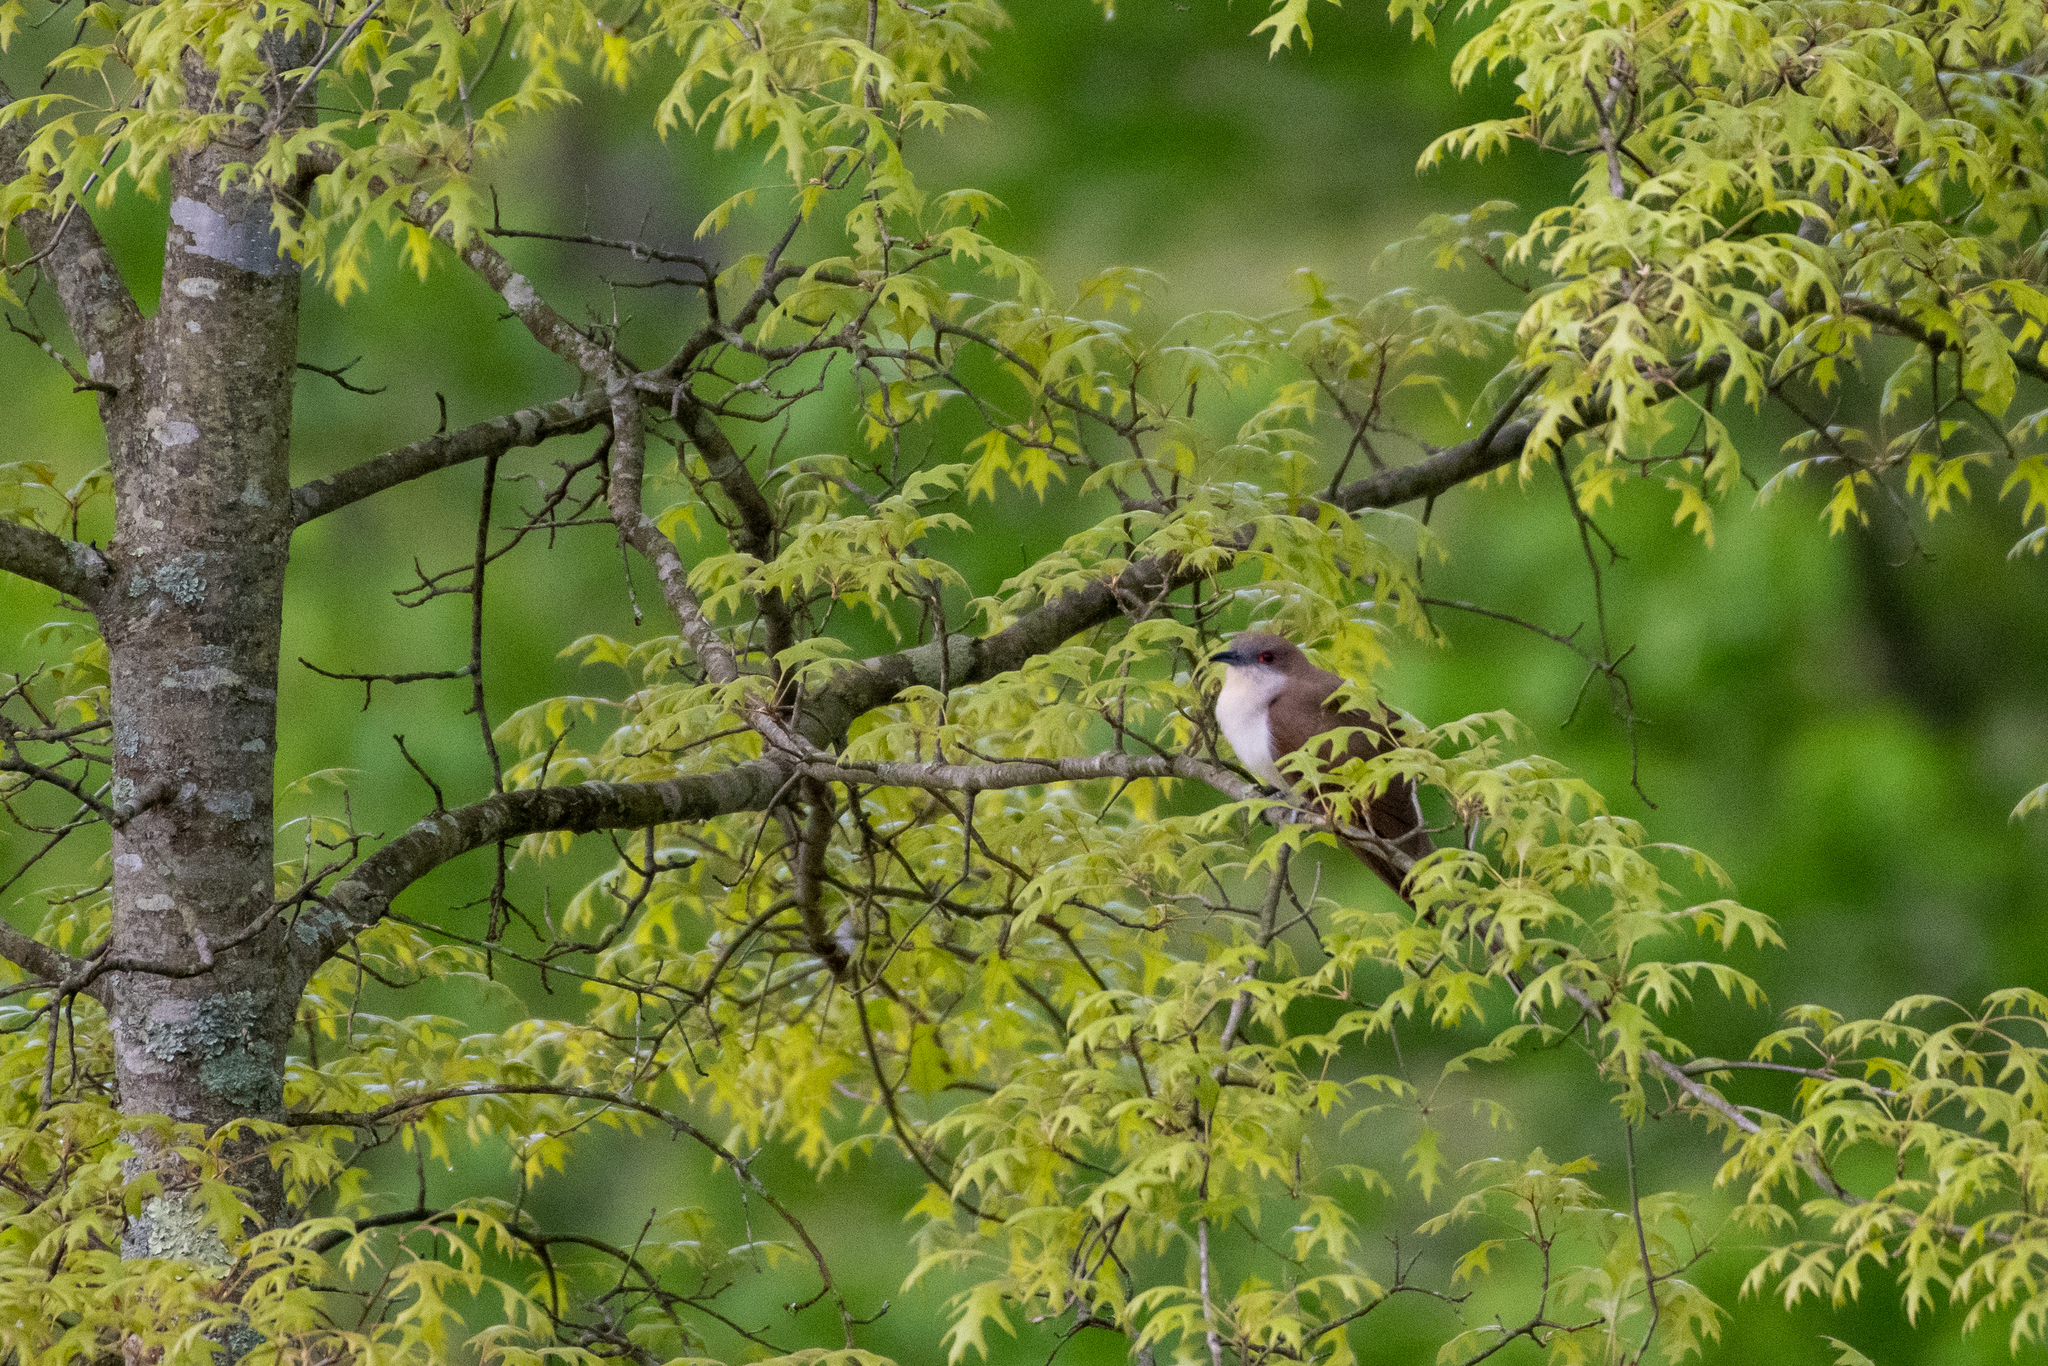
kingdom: Animalia
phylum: Chordata
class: Aves
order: Cuculiformes
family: Cuculidae
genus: Coccyzus
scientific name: Coccyzus erythropthalmus
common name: Black-billed cuckoo
